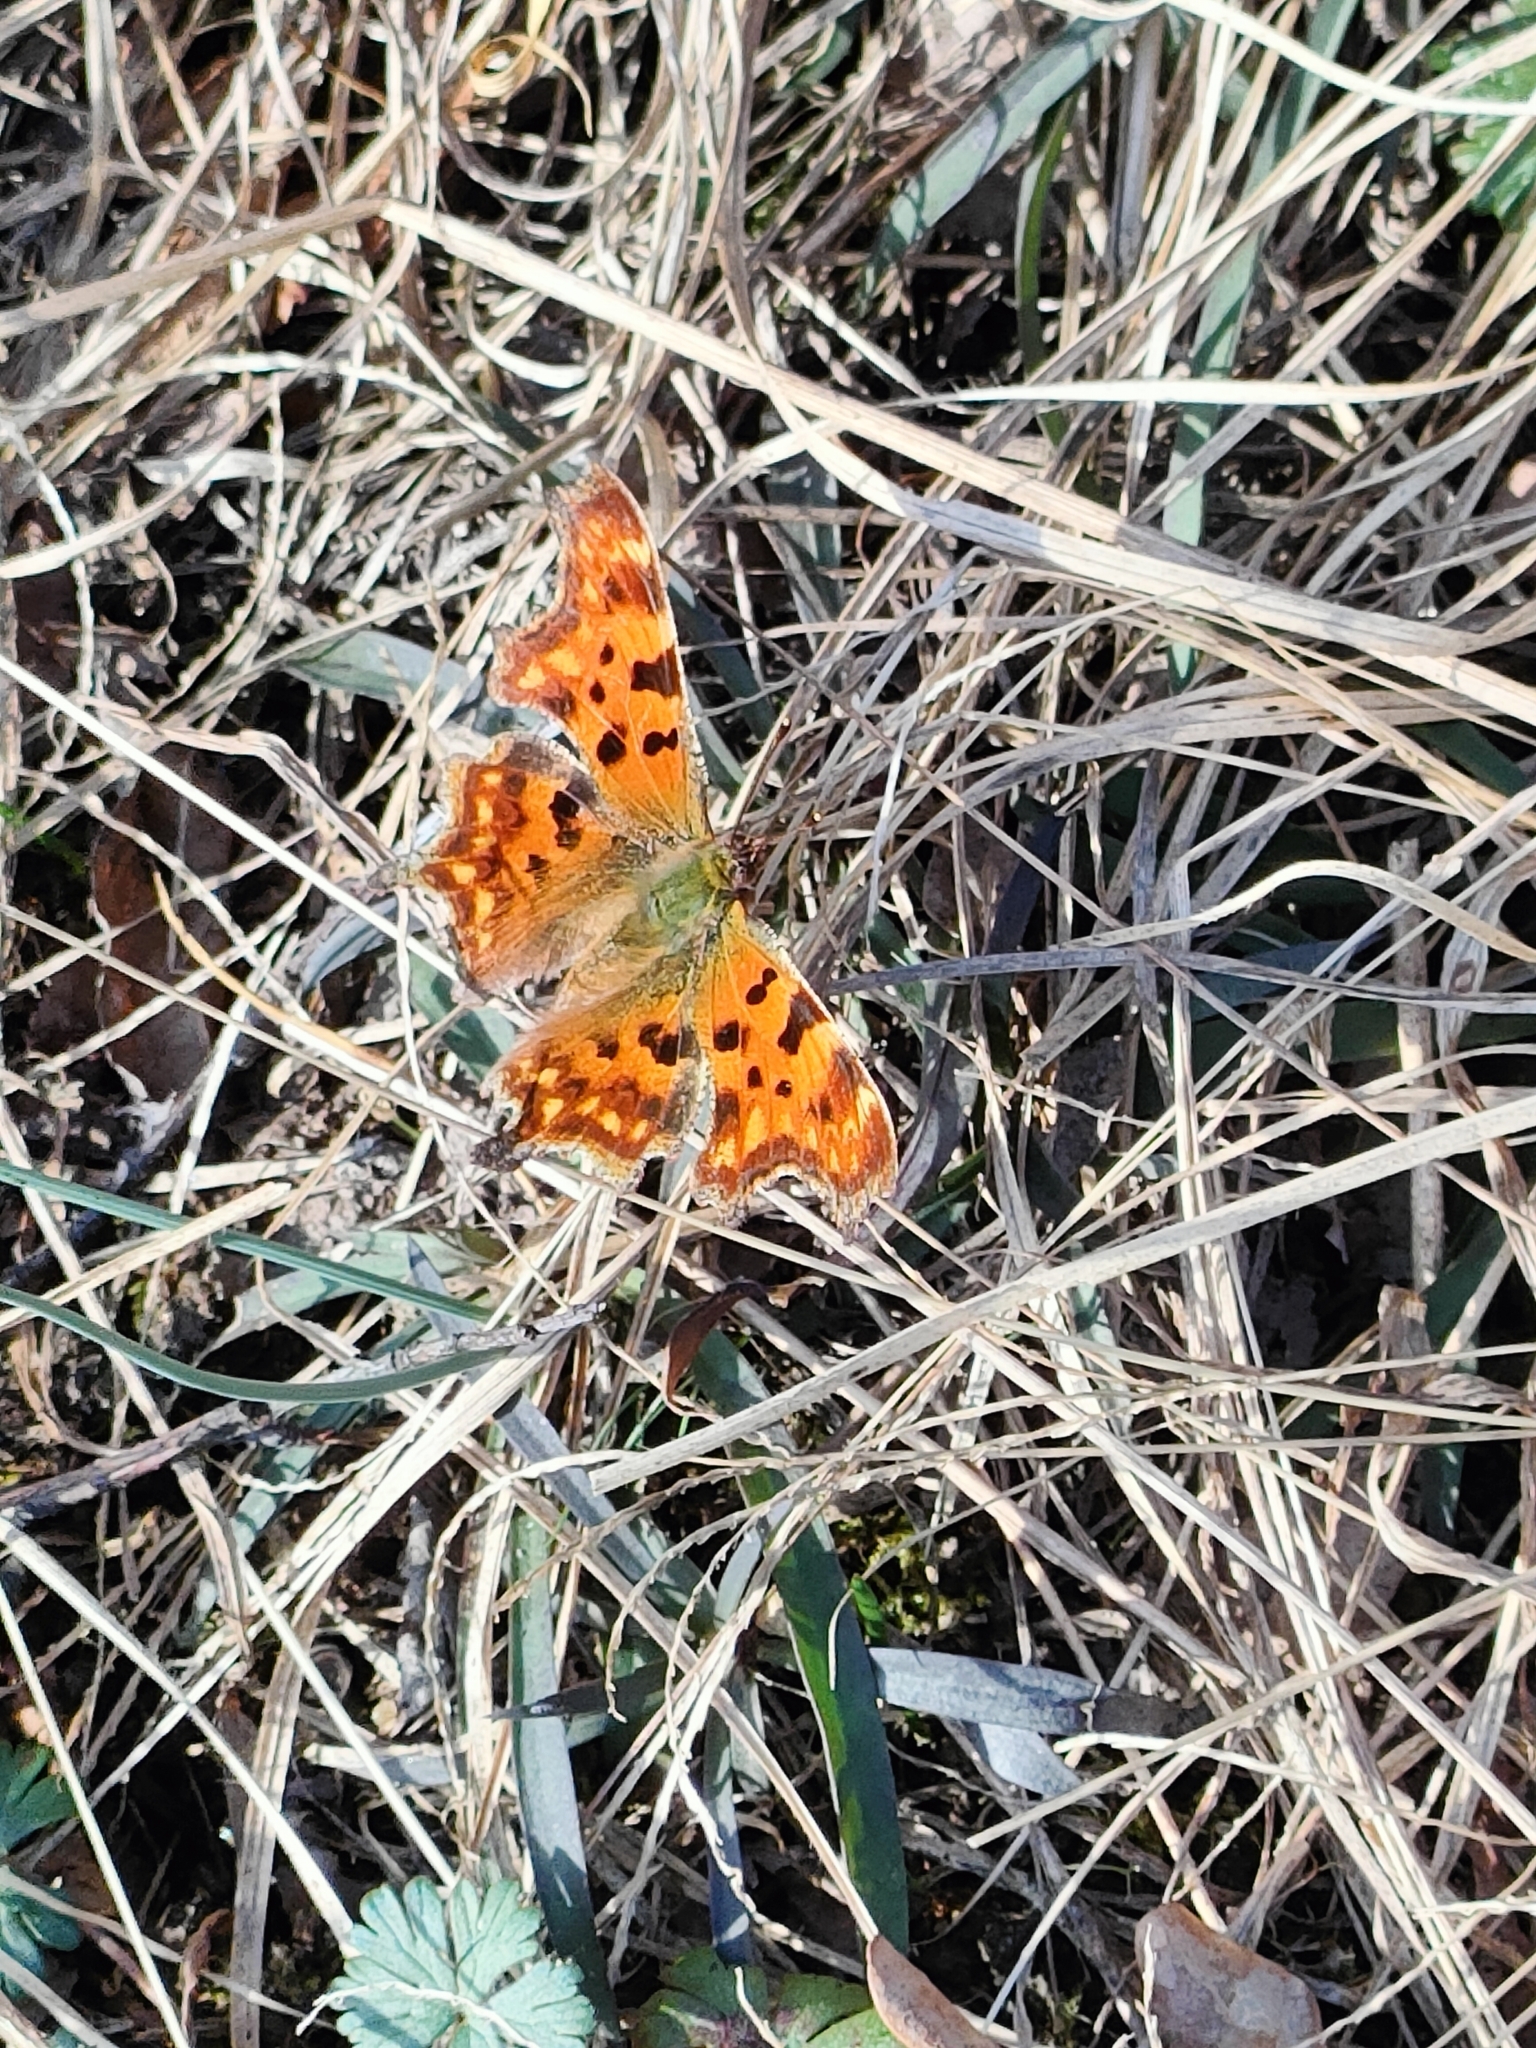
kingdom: Animalia
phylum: Arthropoda
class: Insecta
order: Lepidoptera
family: Nymphalidae
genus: Polygonia
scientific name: Polygonia c-album
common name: Comma
